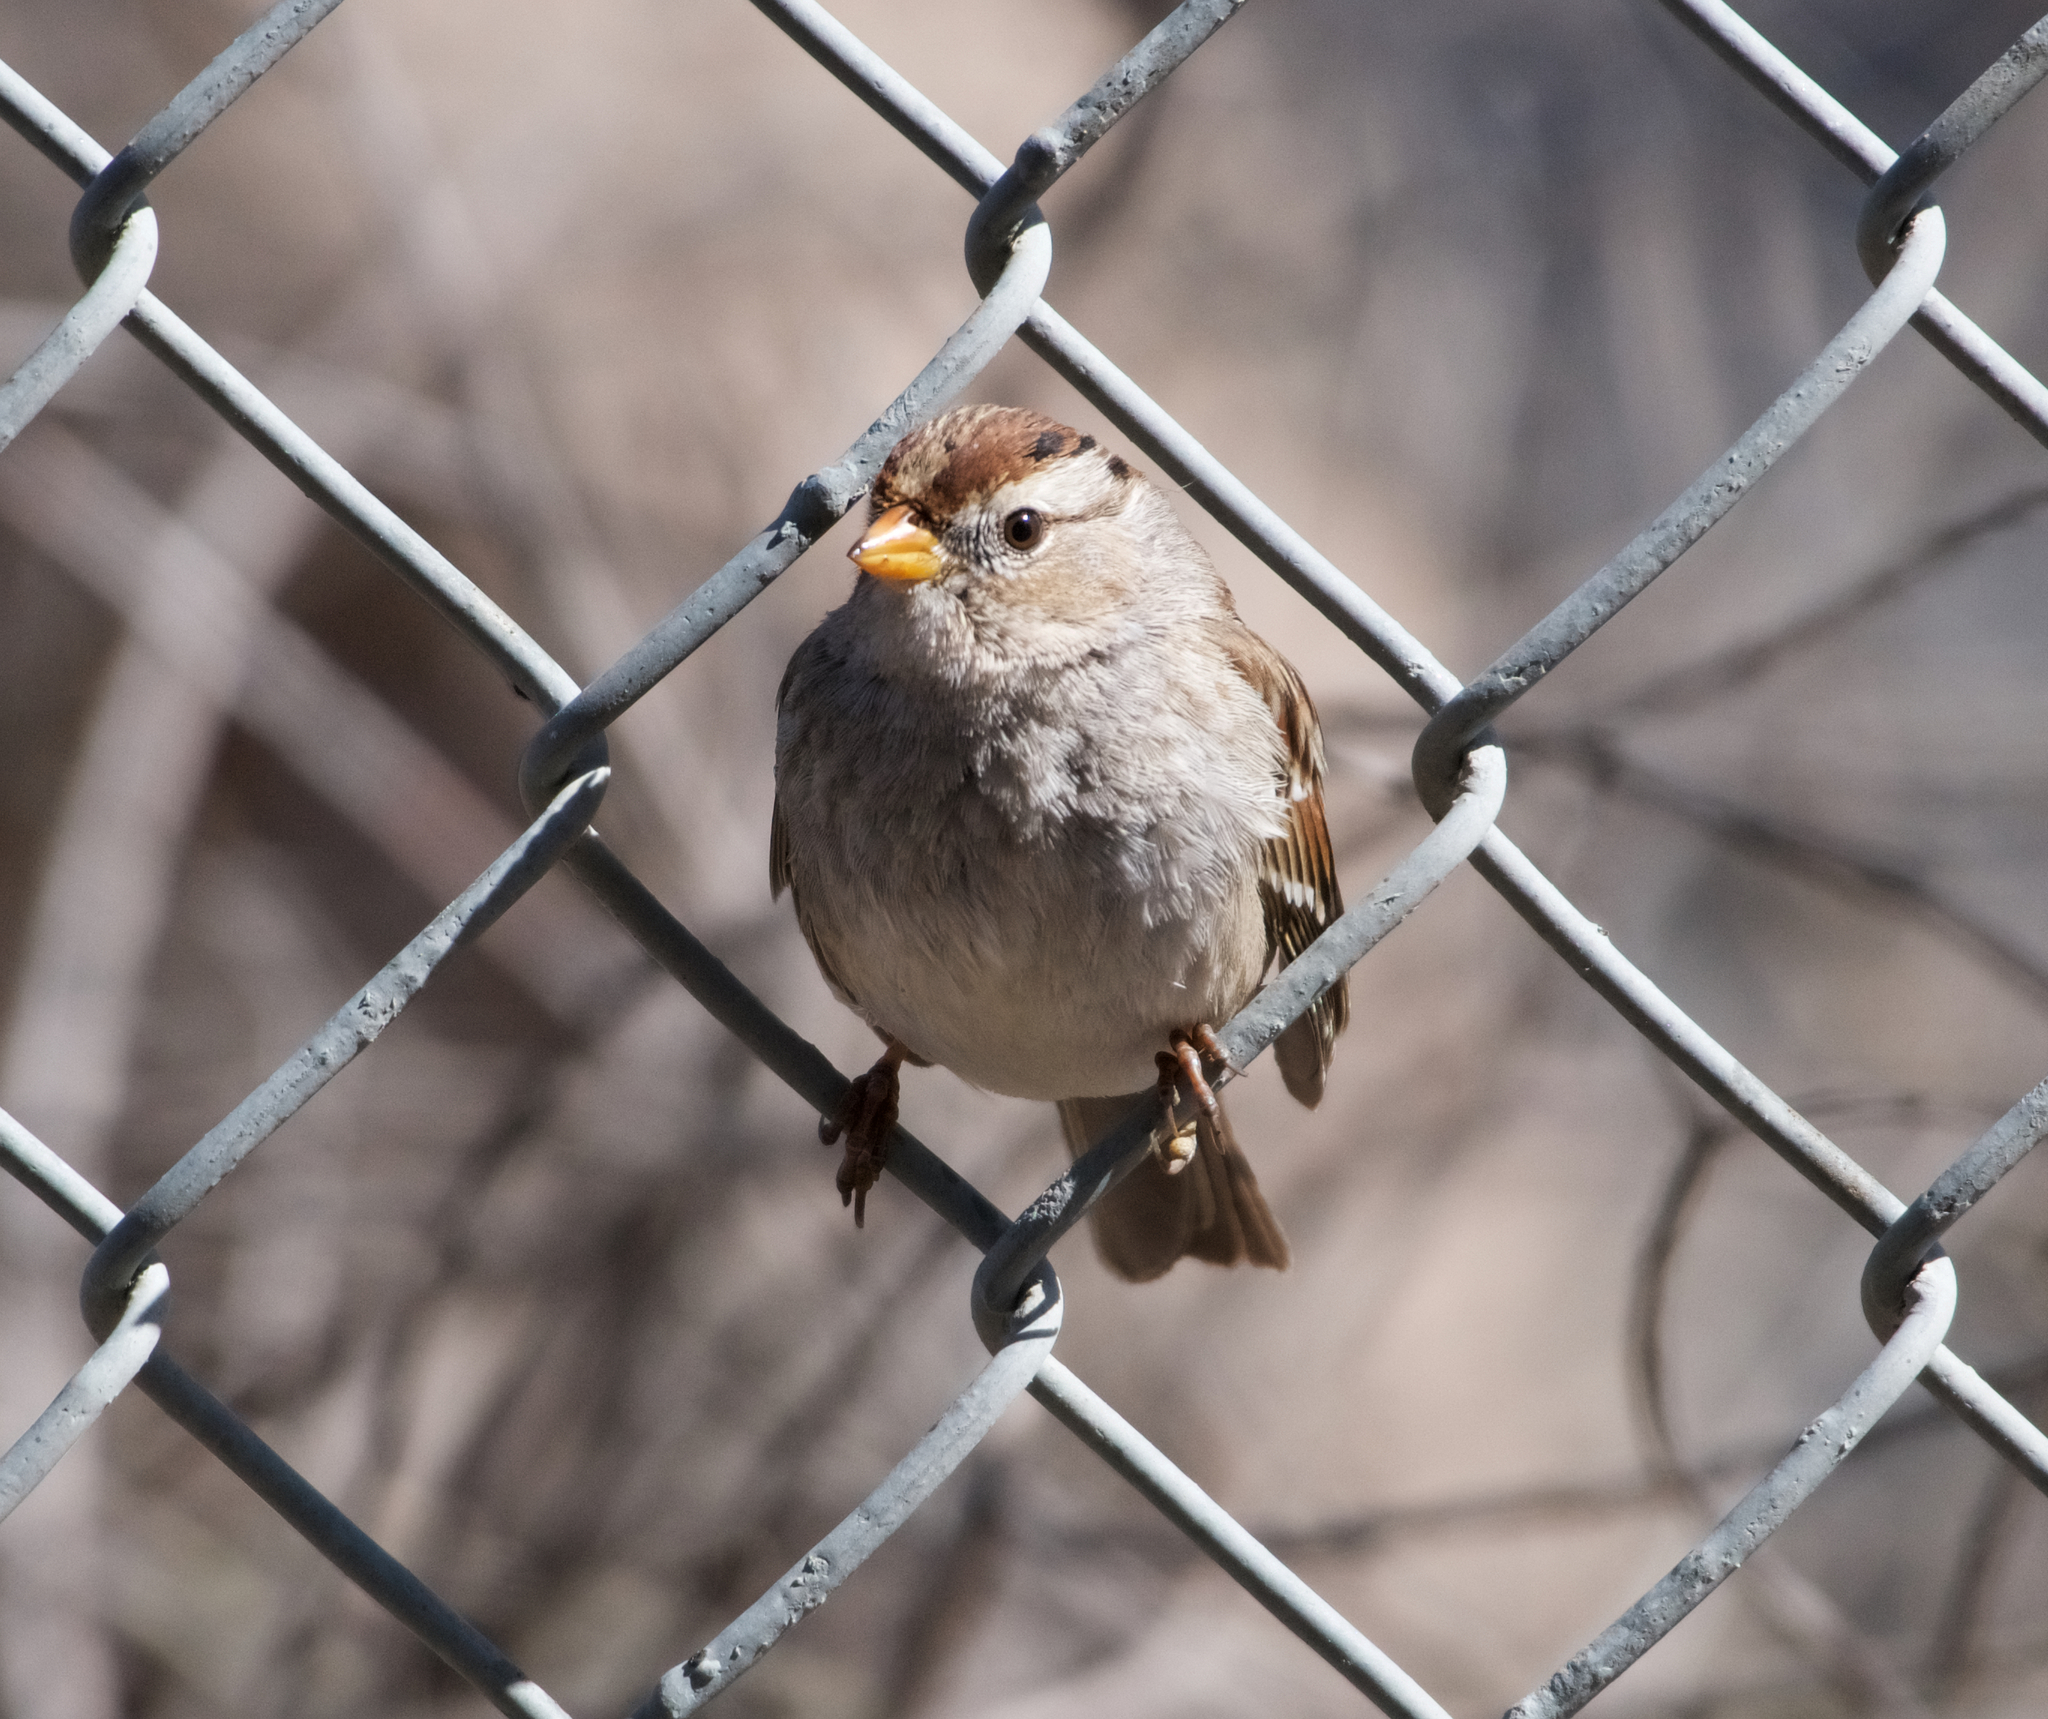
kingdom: Animalia
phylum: Chordata
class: Aves
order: Passeriformes
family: Passerellidae
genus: Zonotrichia
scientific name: Zonotrichia leucophrys
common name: White-crowned sparrow
